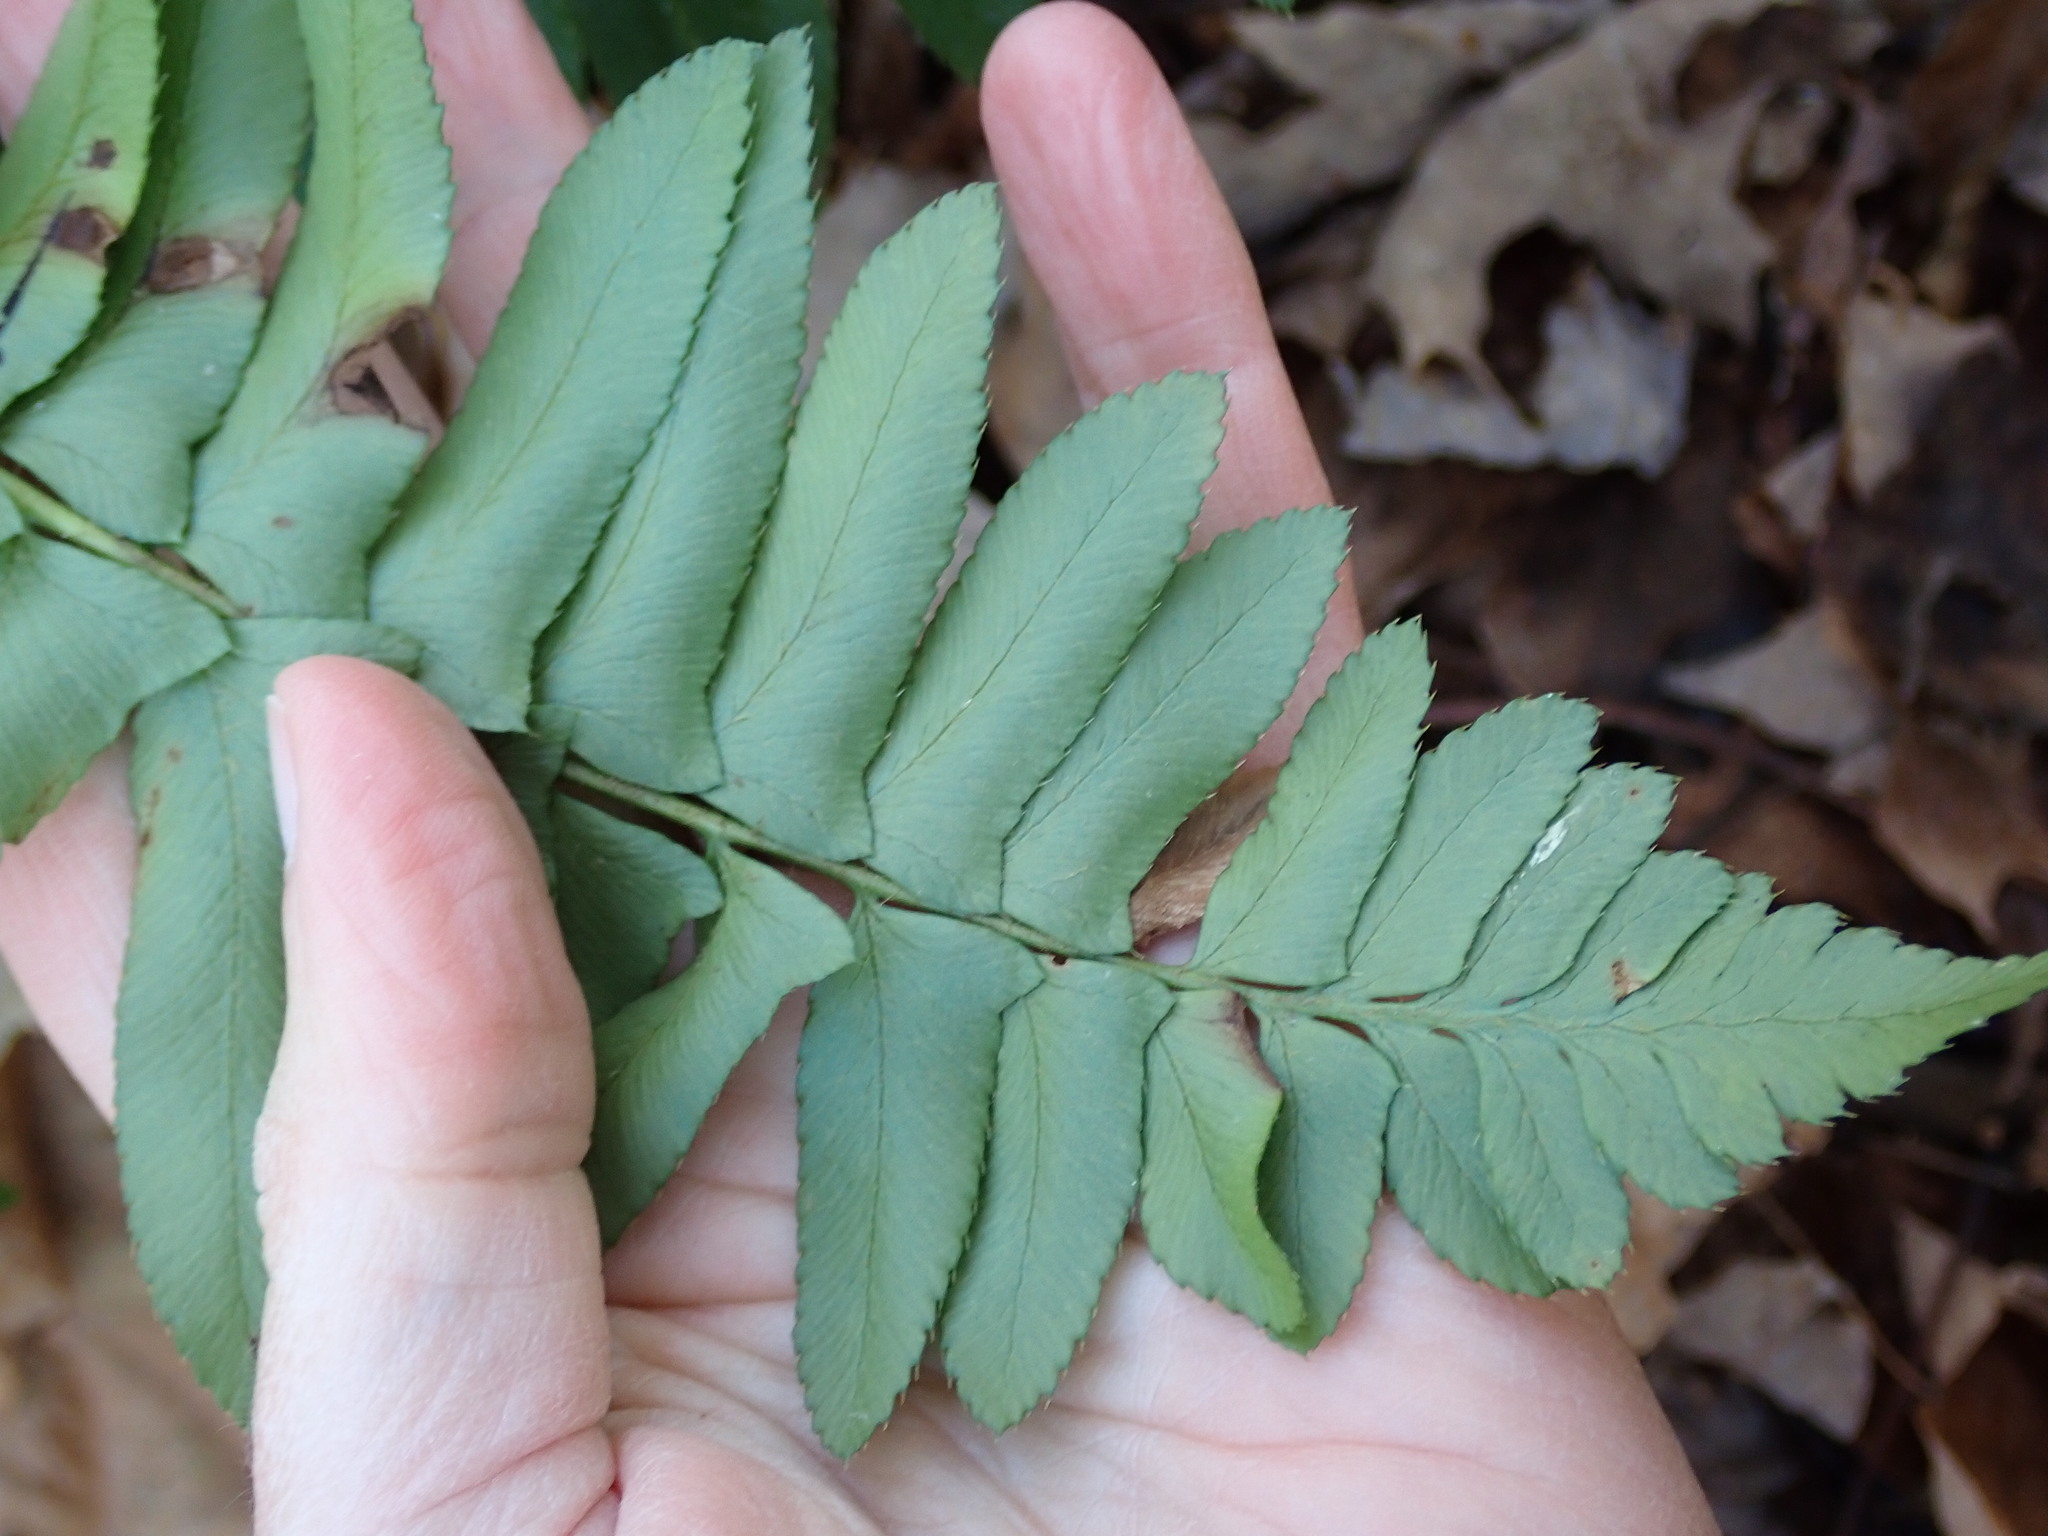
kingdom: Plantae
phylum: Tracheophyta
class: Polypodiopsida
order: Polypodiales
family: Dryopteridaceae
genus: Polystichum
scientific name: Polystichum acrostichoides
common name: Christmas fern
